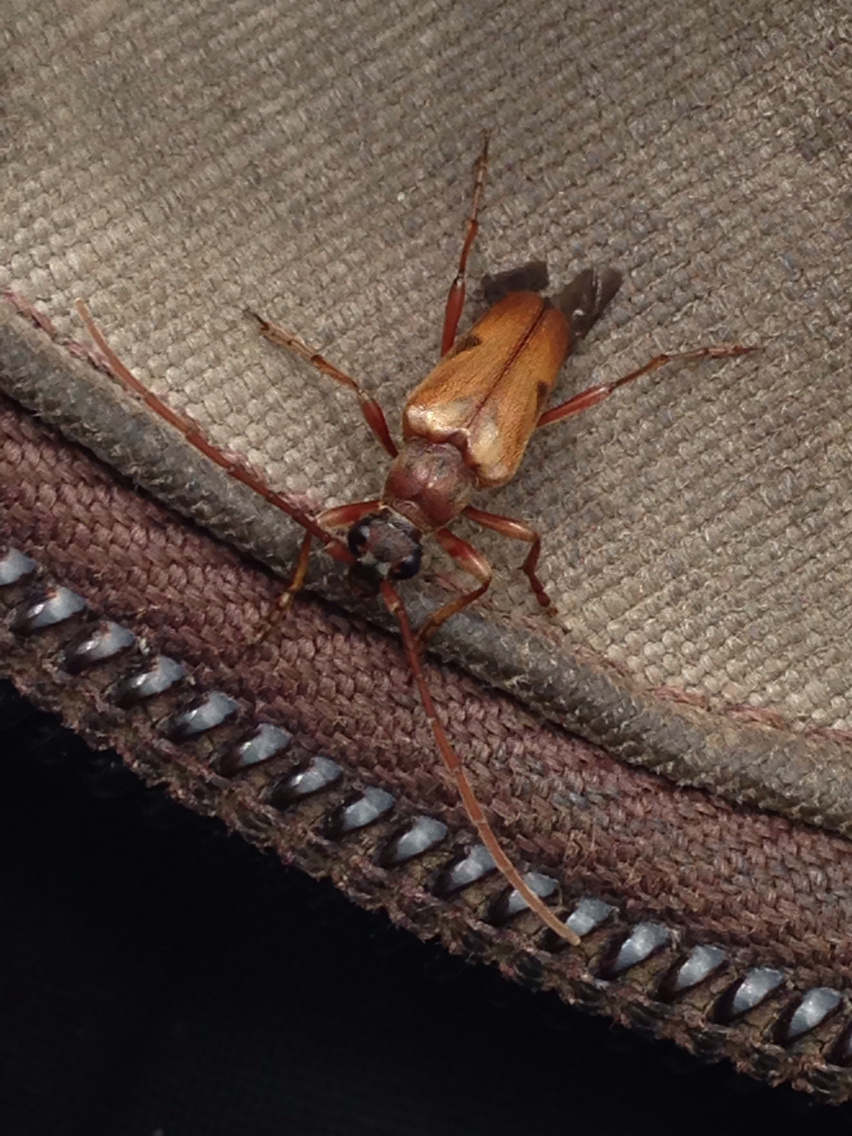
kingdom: Animalia
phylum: Arthropoda
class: Insecta
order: Coleoptera
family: Cerambycidae
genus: Lepturopsis
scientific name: Lepturopsis biforis
